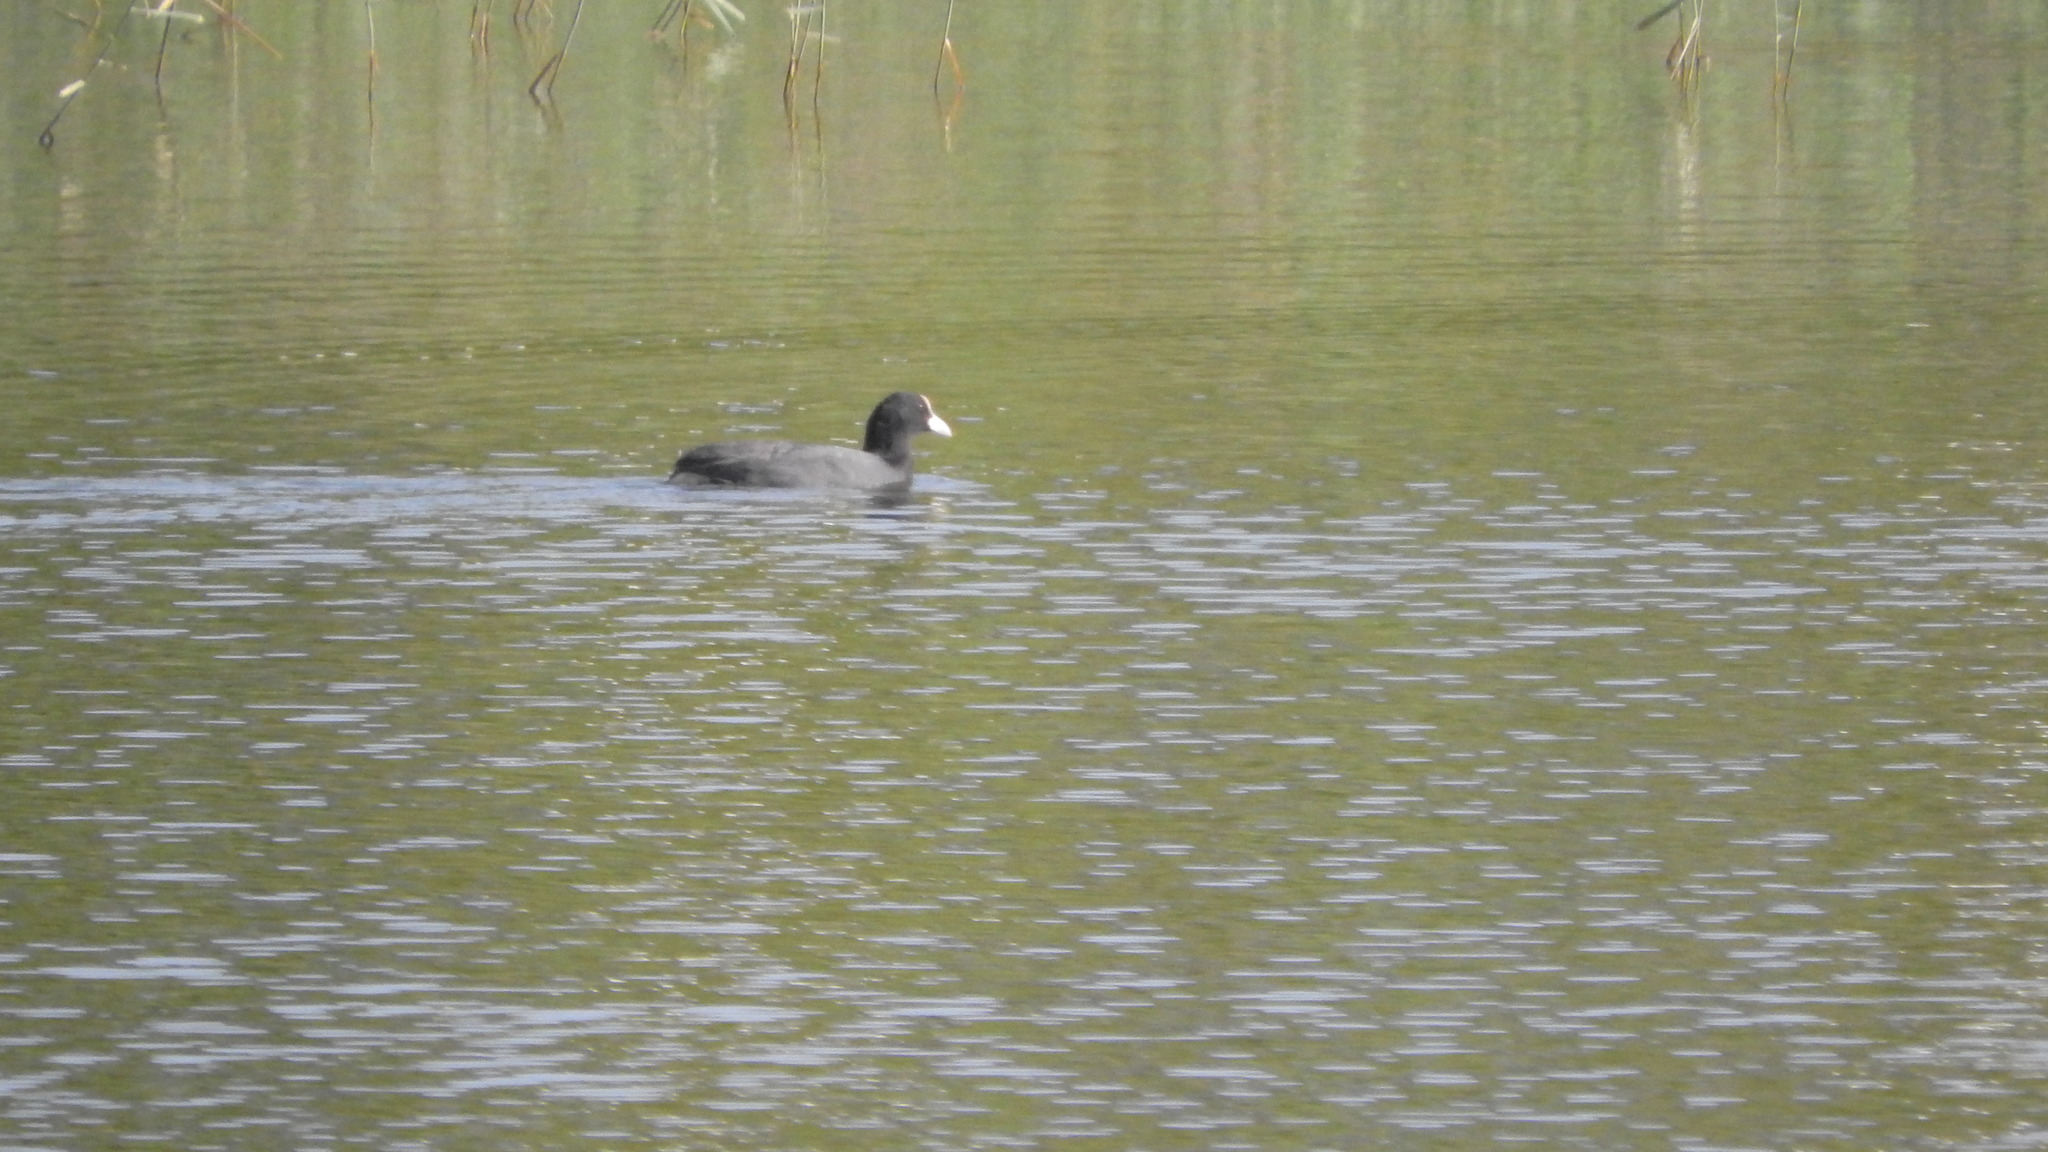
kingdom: Animalia
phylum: Chordata
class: Aves
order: Gruiformes
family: Rallidae
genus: Fulica
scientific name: Fulica atra
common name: Eurasian coot
